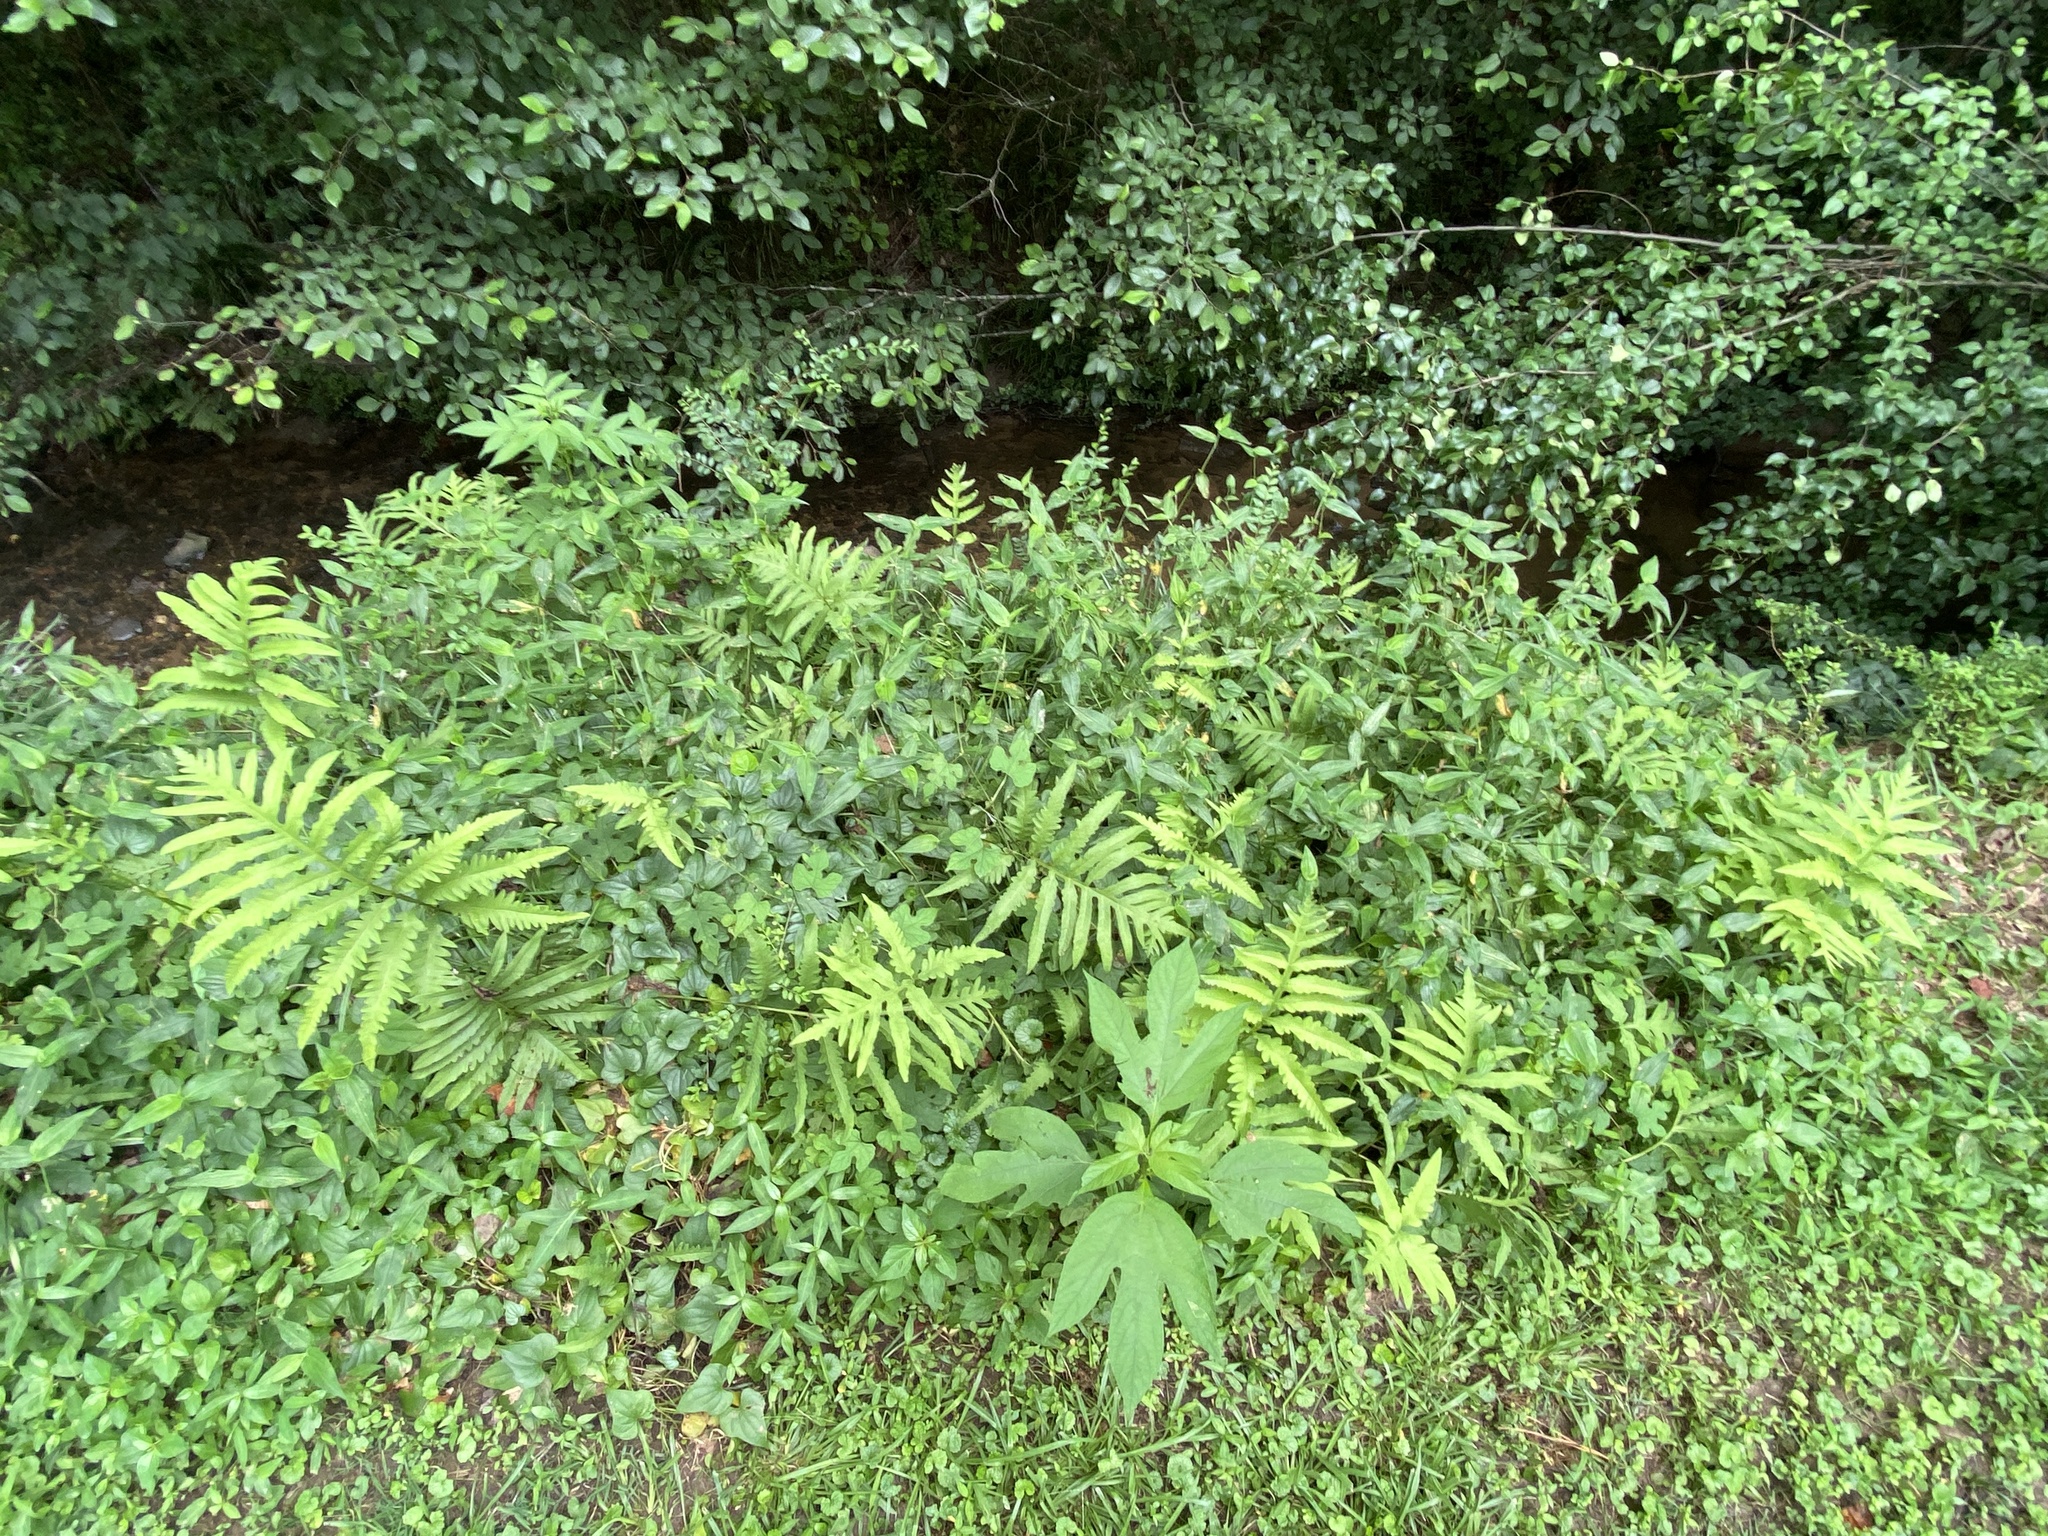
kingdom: Plantae
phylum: Tracheophyta
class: Polypodiopsida
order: Polypodiales
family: Onocleaceae
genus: Onoclea
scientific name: Onoclea sensibilis
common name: Sensitive fern
